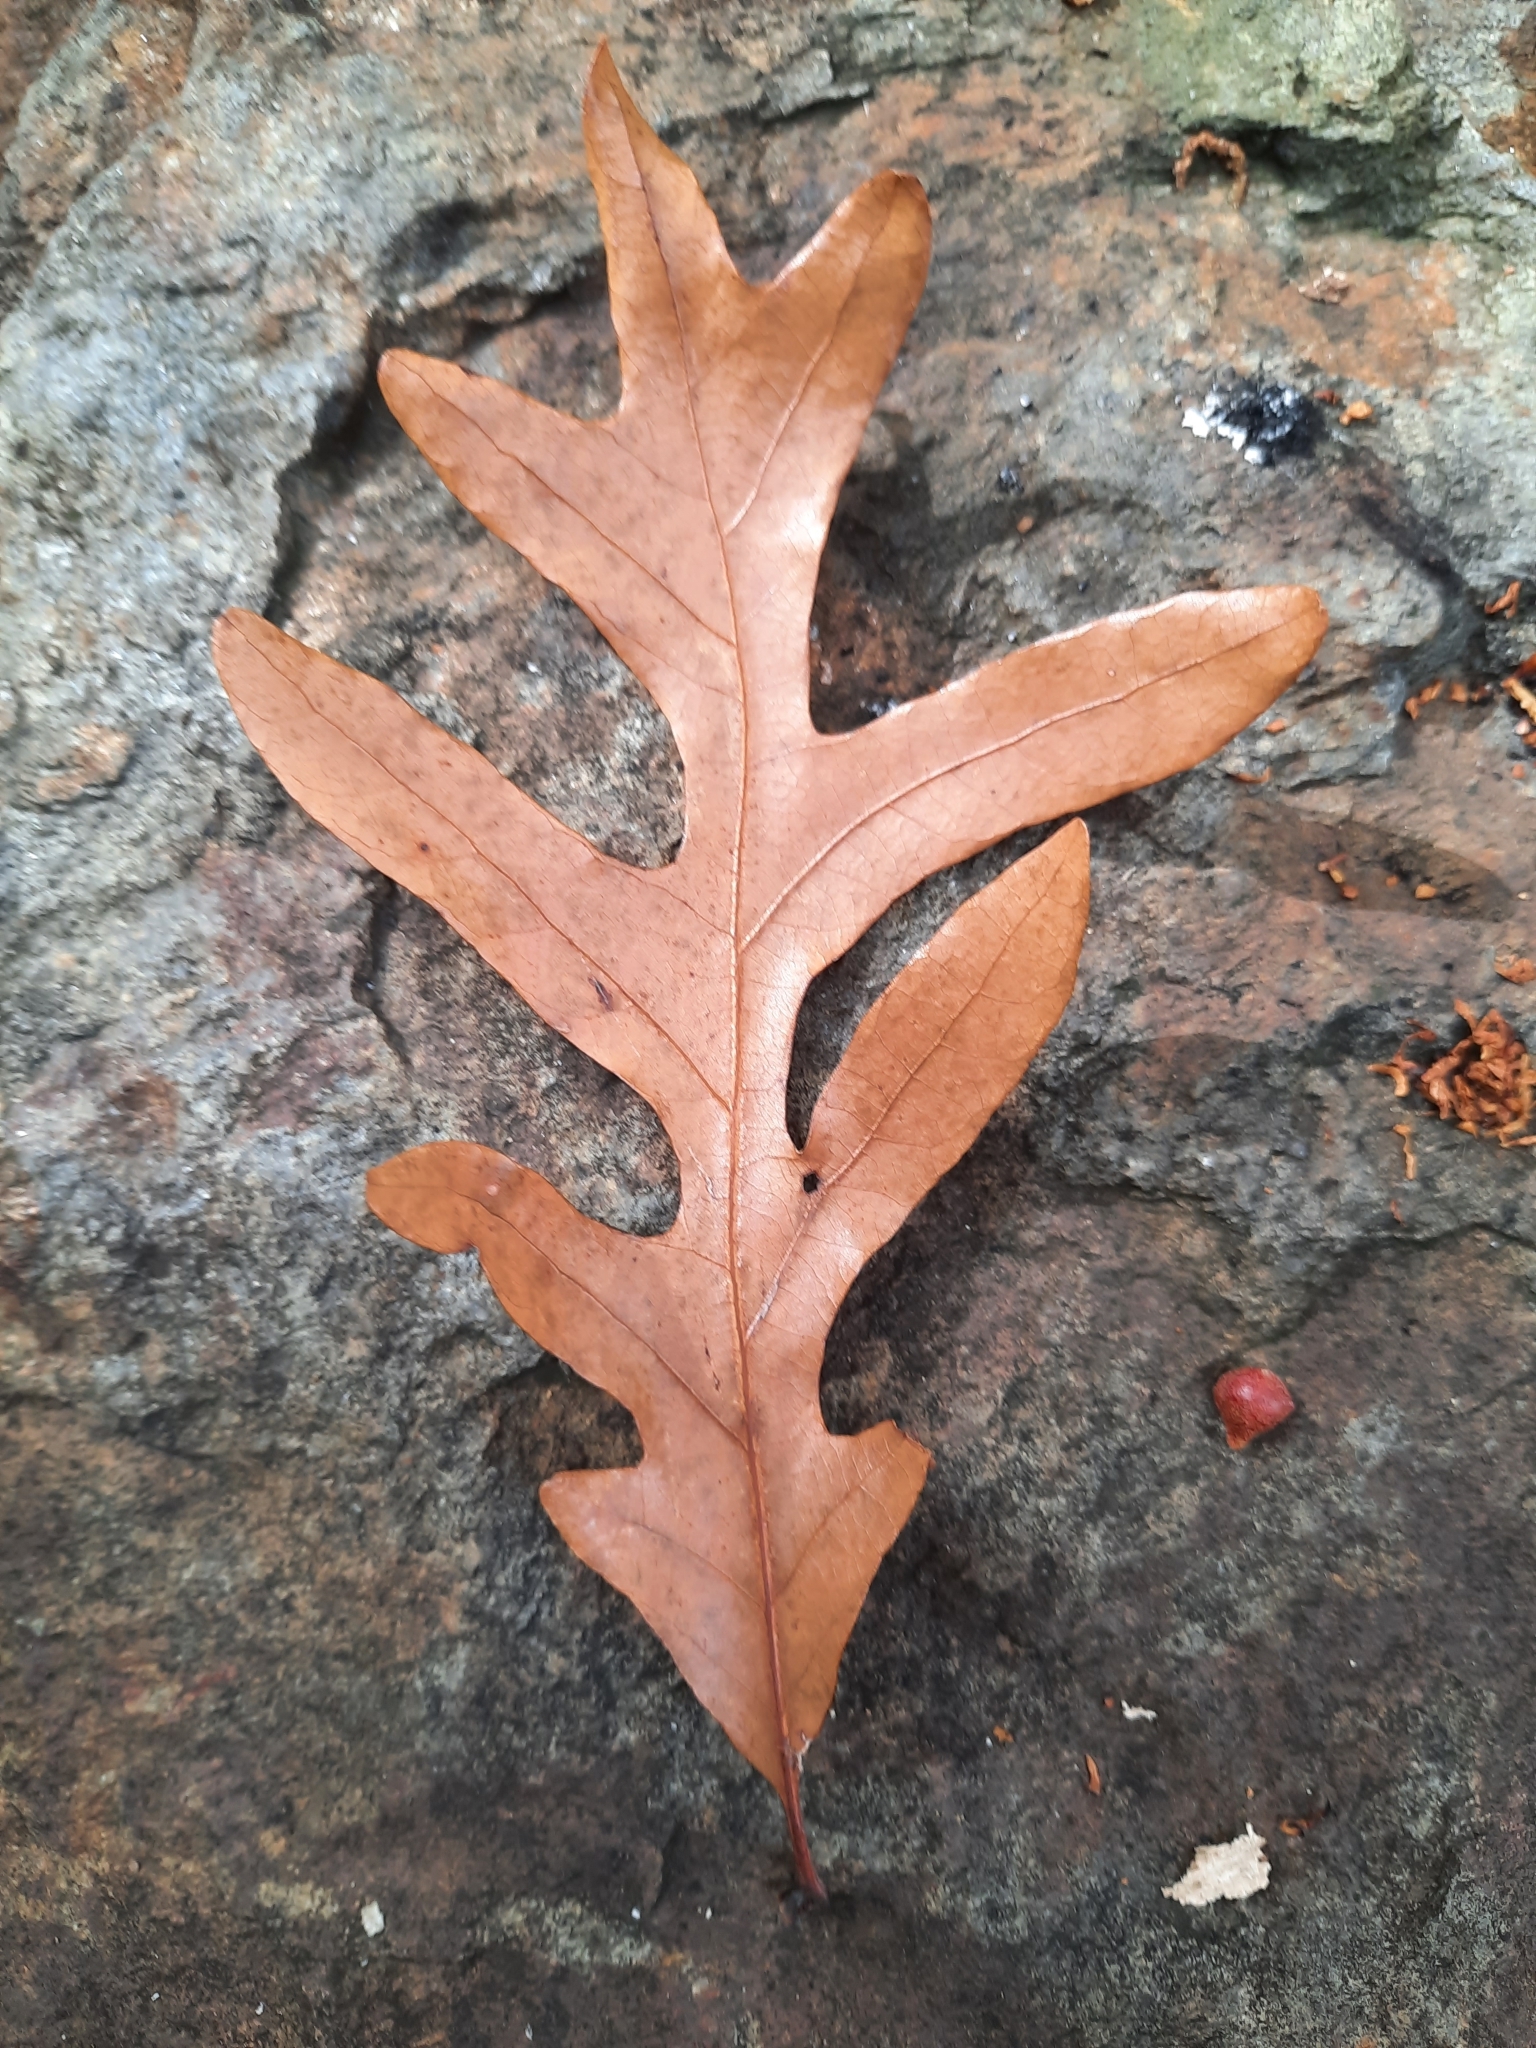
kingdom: Plantae
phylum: Tracheophyta
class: Magnoliopsida
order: Fagales
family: Fagaceae
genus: Quercus
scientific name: Quercus alba
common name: White oak
